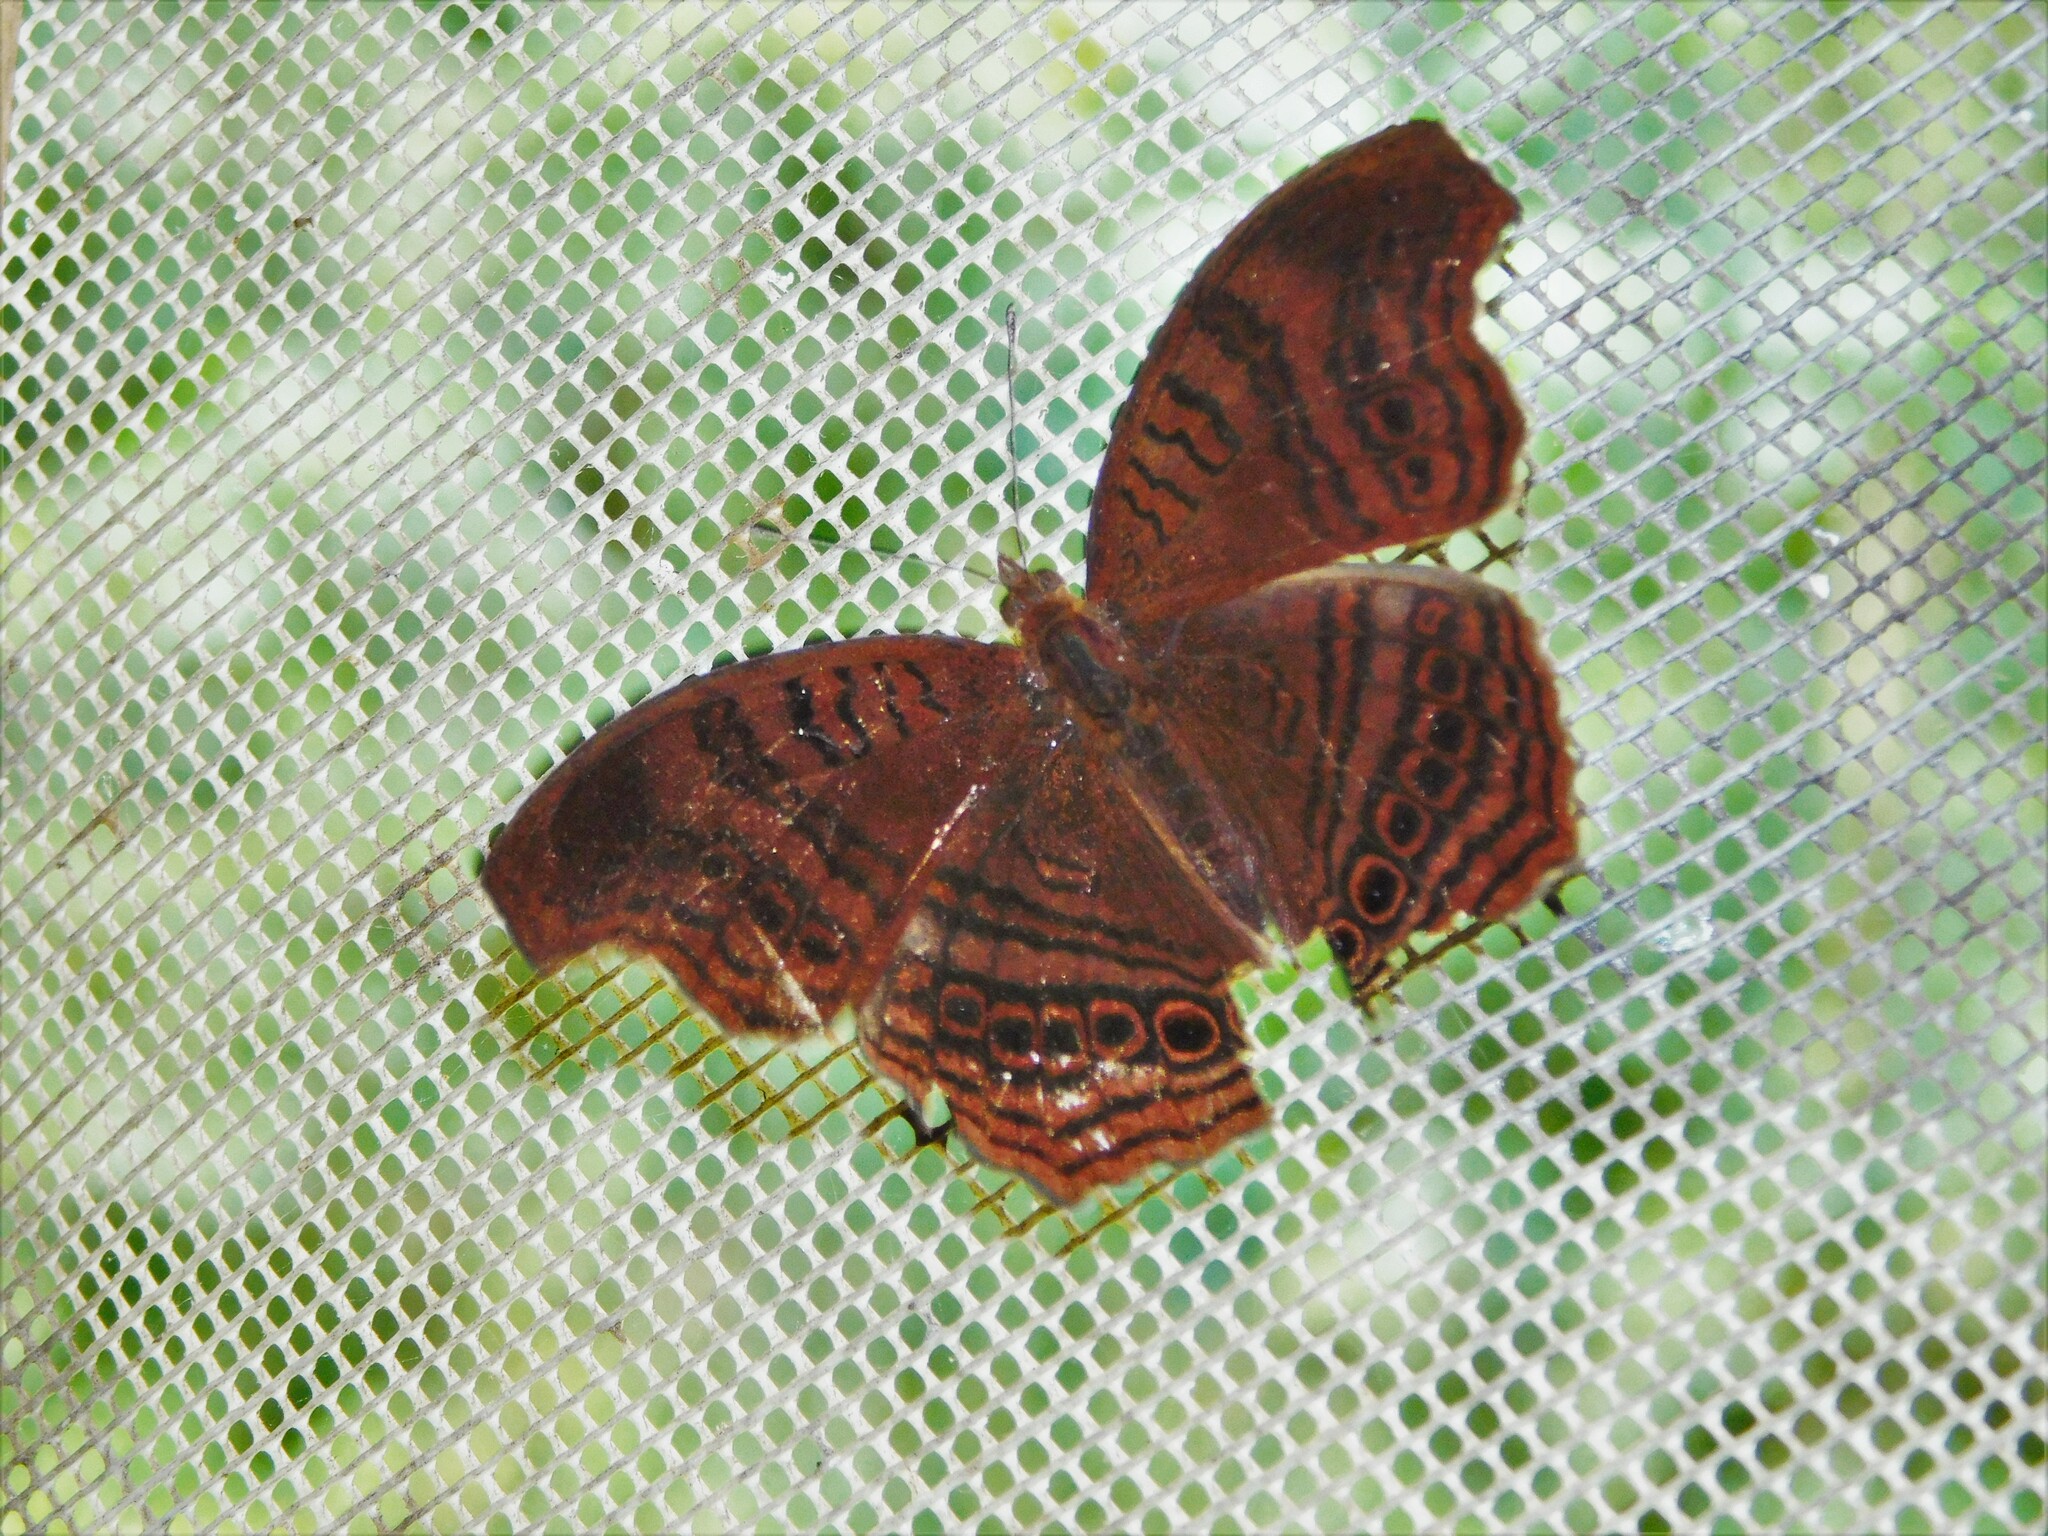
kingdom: Animalia
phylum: Arthropoda
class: Insecta
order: Lepidoptera
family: Nymphalidae
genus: Junonia
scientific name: Junonia stygia
